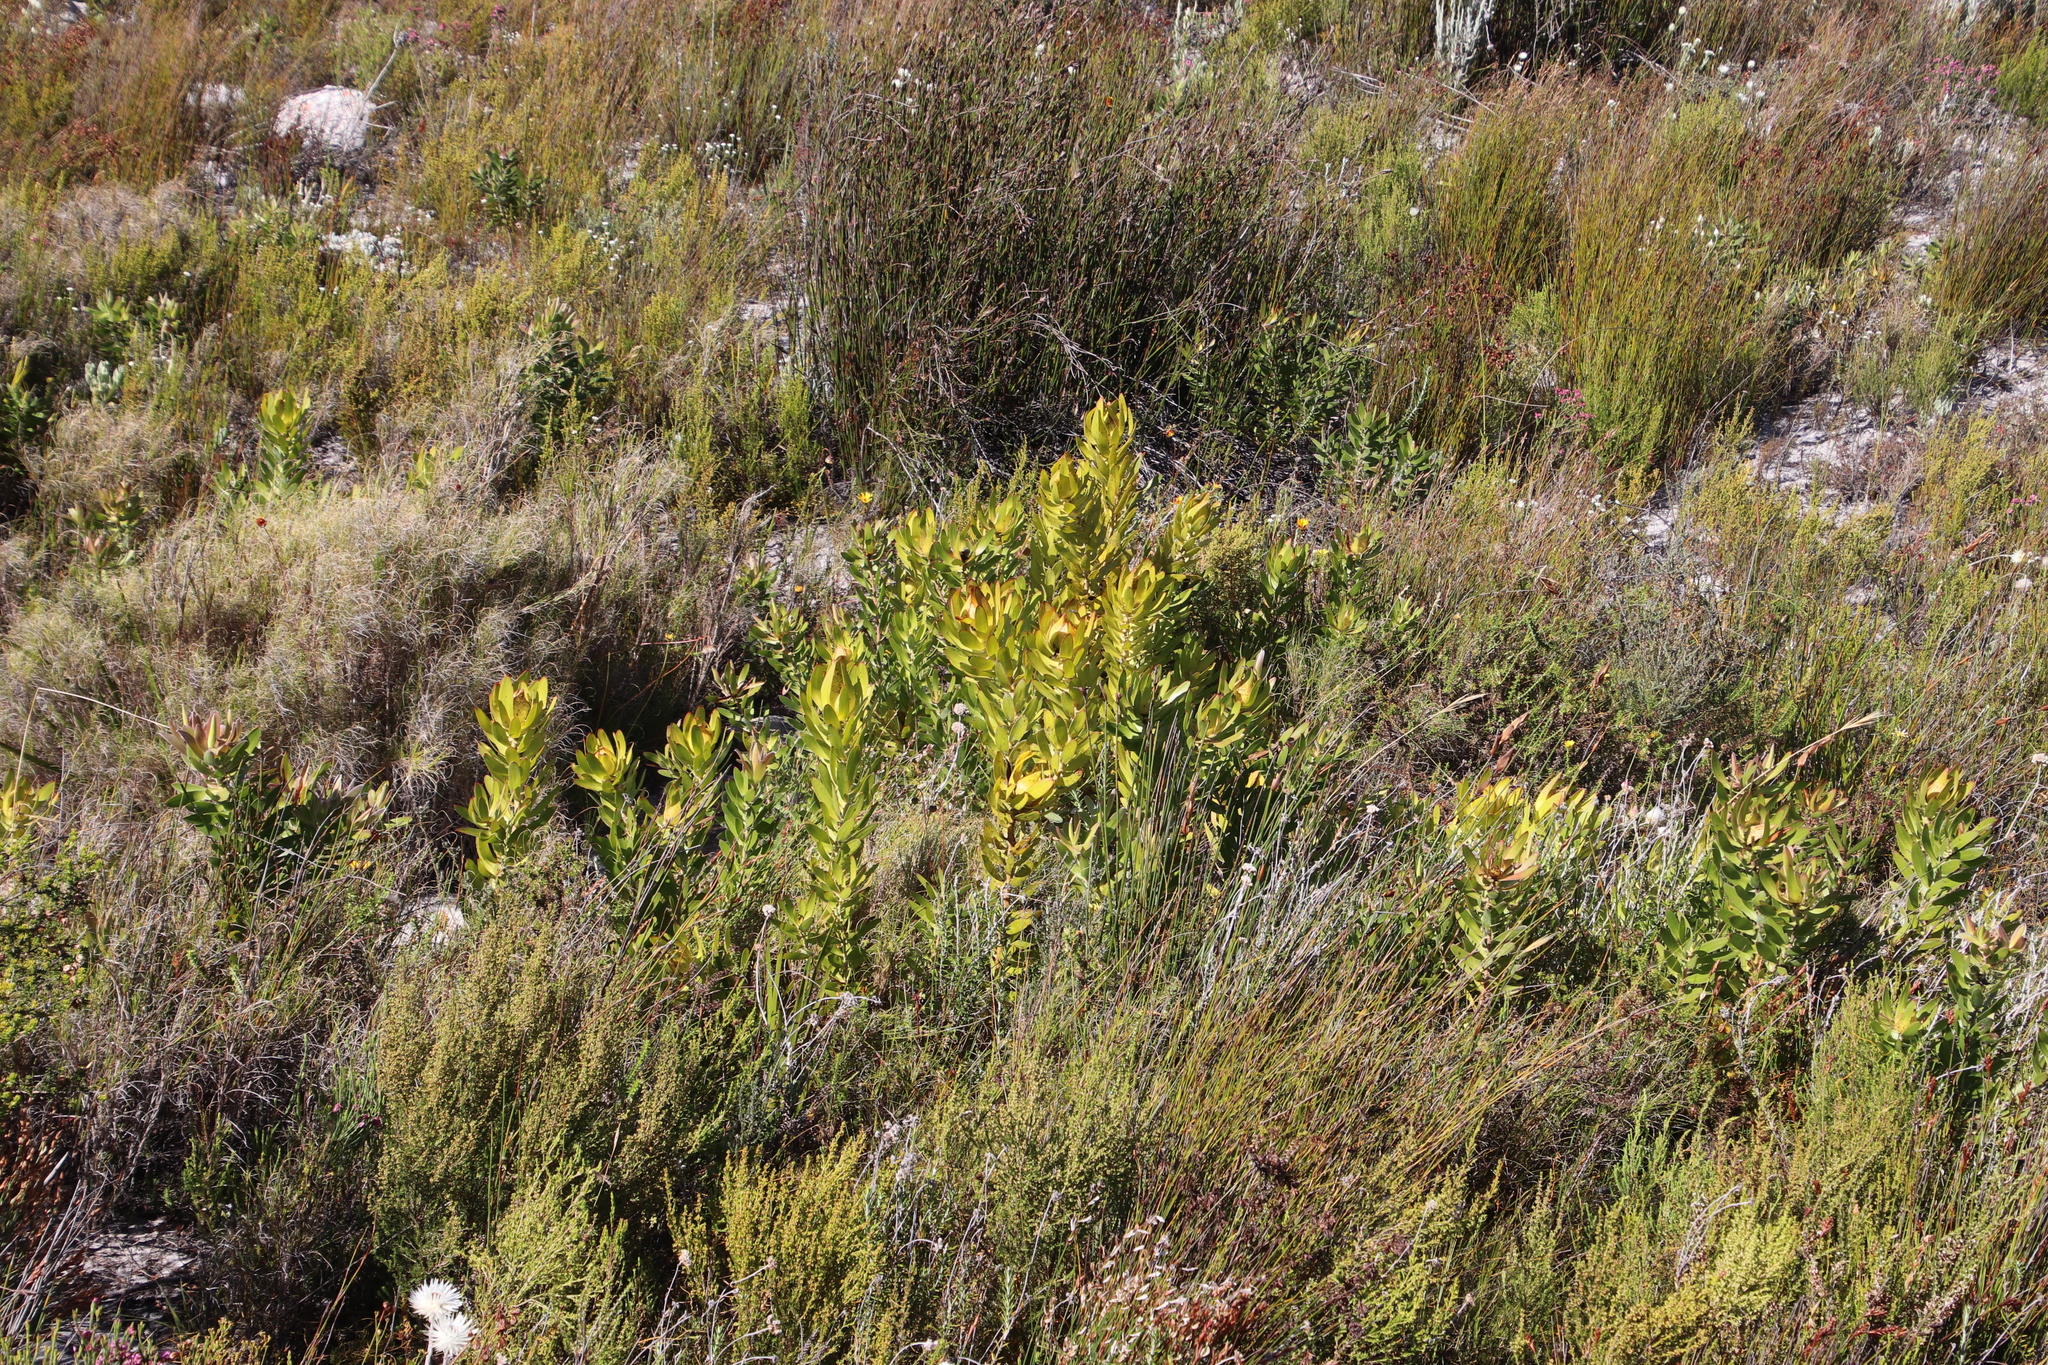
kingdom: Plantae
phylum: Tracheophyta
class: Magnoliopsida
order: Proteales
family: Proteaceae
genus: Leucadendron
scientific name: Leucadendron laureolum
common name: Golden sunshinebush
